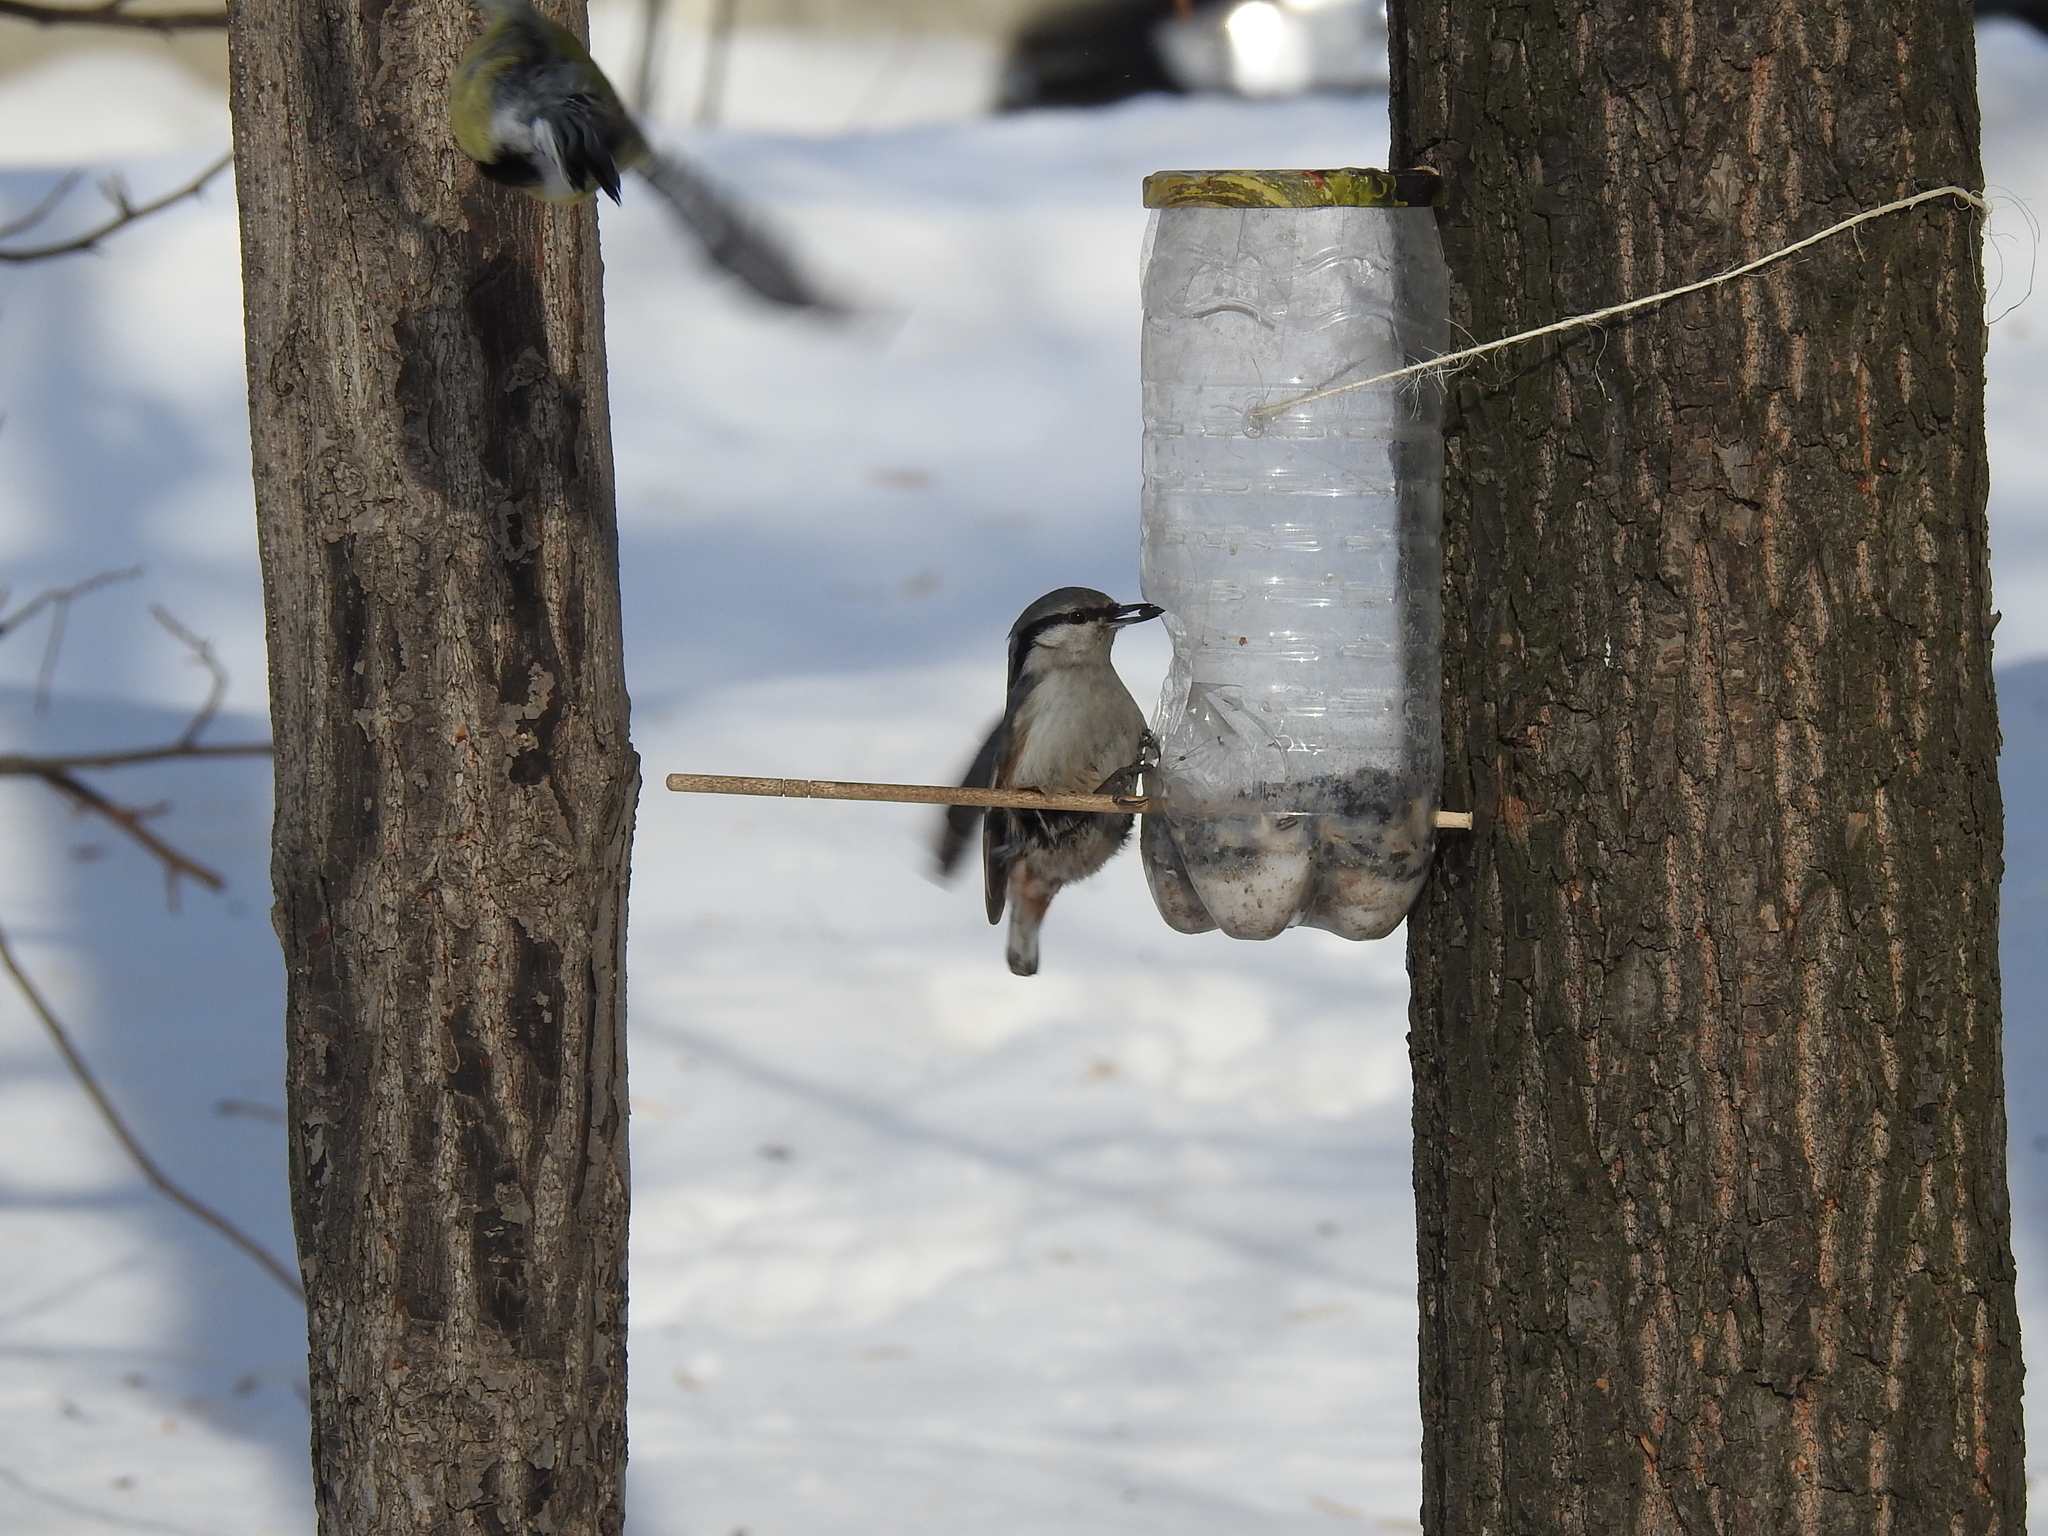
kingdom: Animalia
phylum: Chordata
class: Aves
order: Passeriformes
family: Sittidae
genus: Sitta
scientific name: Sitta europaea
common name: Eurasian nuthatch
